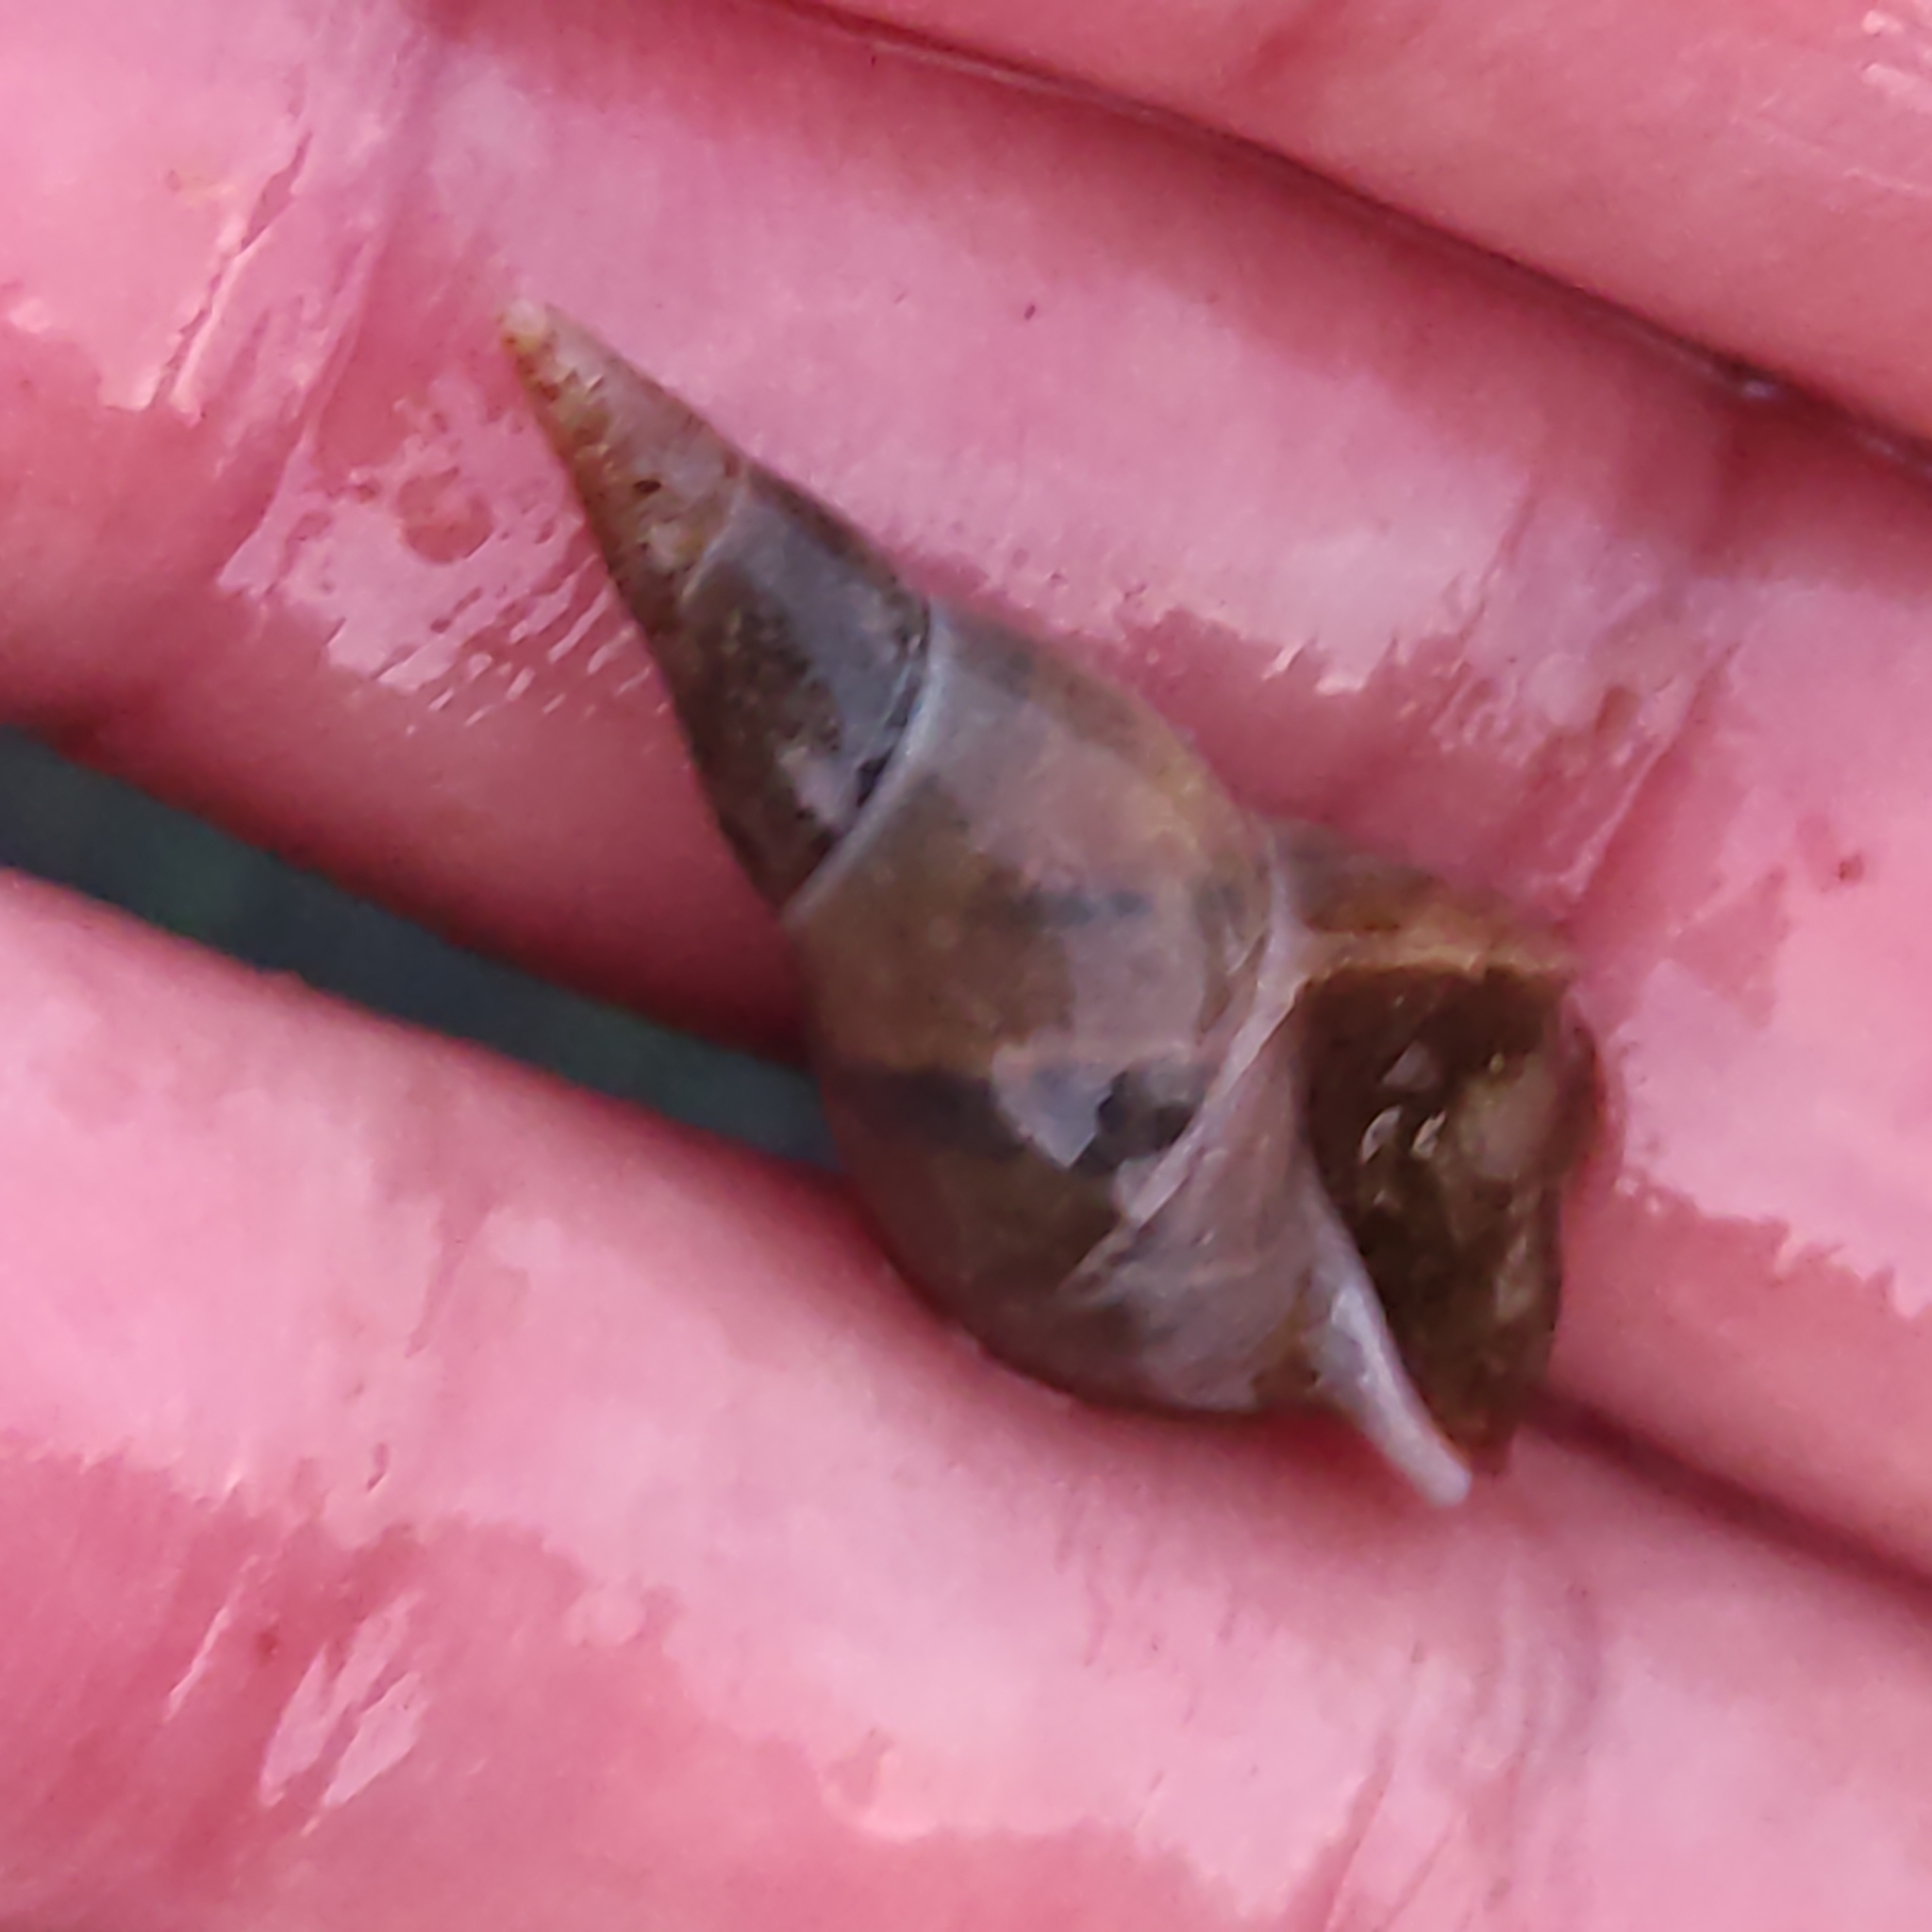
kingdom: Animalia
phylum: Mollusca
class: Gastropoda
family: Lymnaeidae
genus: Lymnaea
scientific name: Lymnaea stagnalis
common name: Great pond snail
